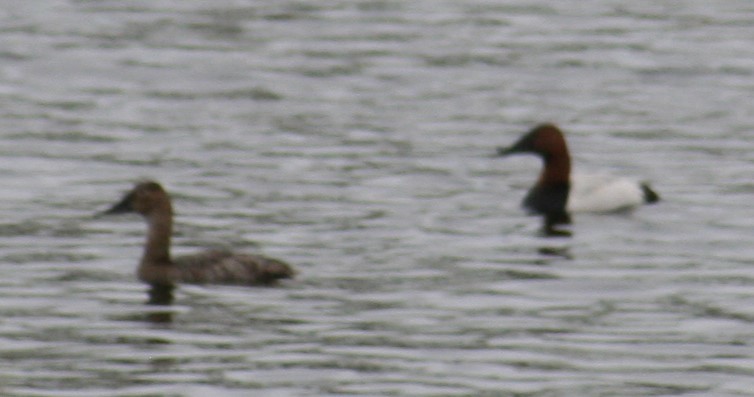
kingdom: Animalia
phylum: Chordata
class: Aves
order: Anseriformes
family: Anatidae
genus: Aythya
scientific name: Aythya valisineria
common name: Canvasback
